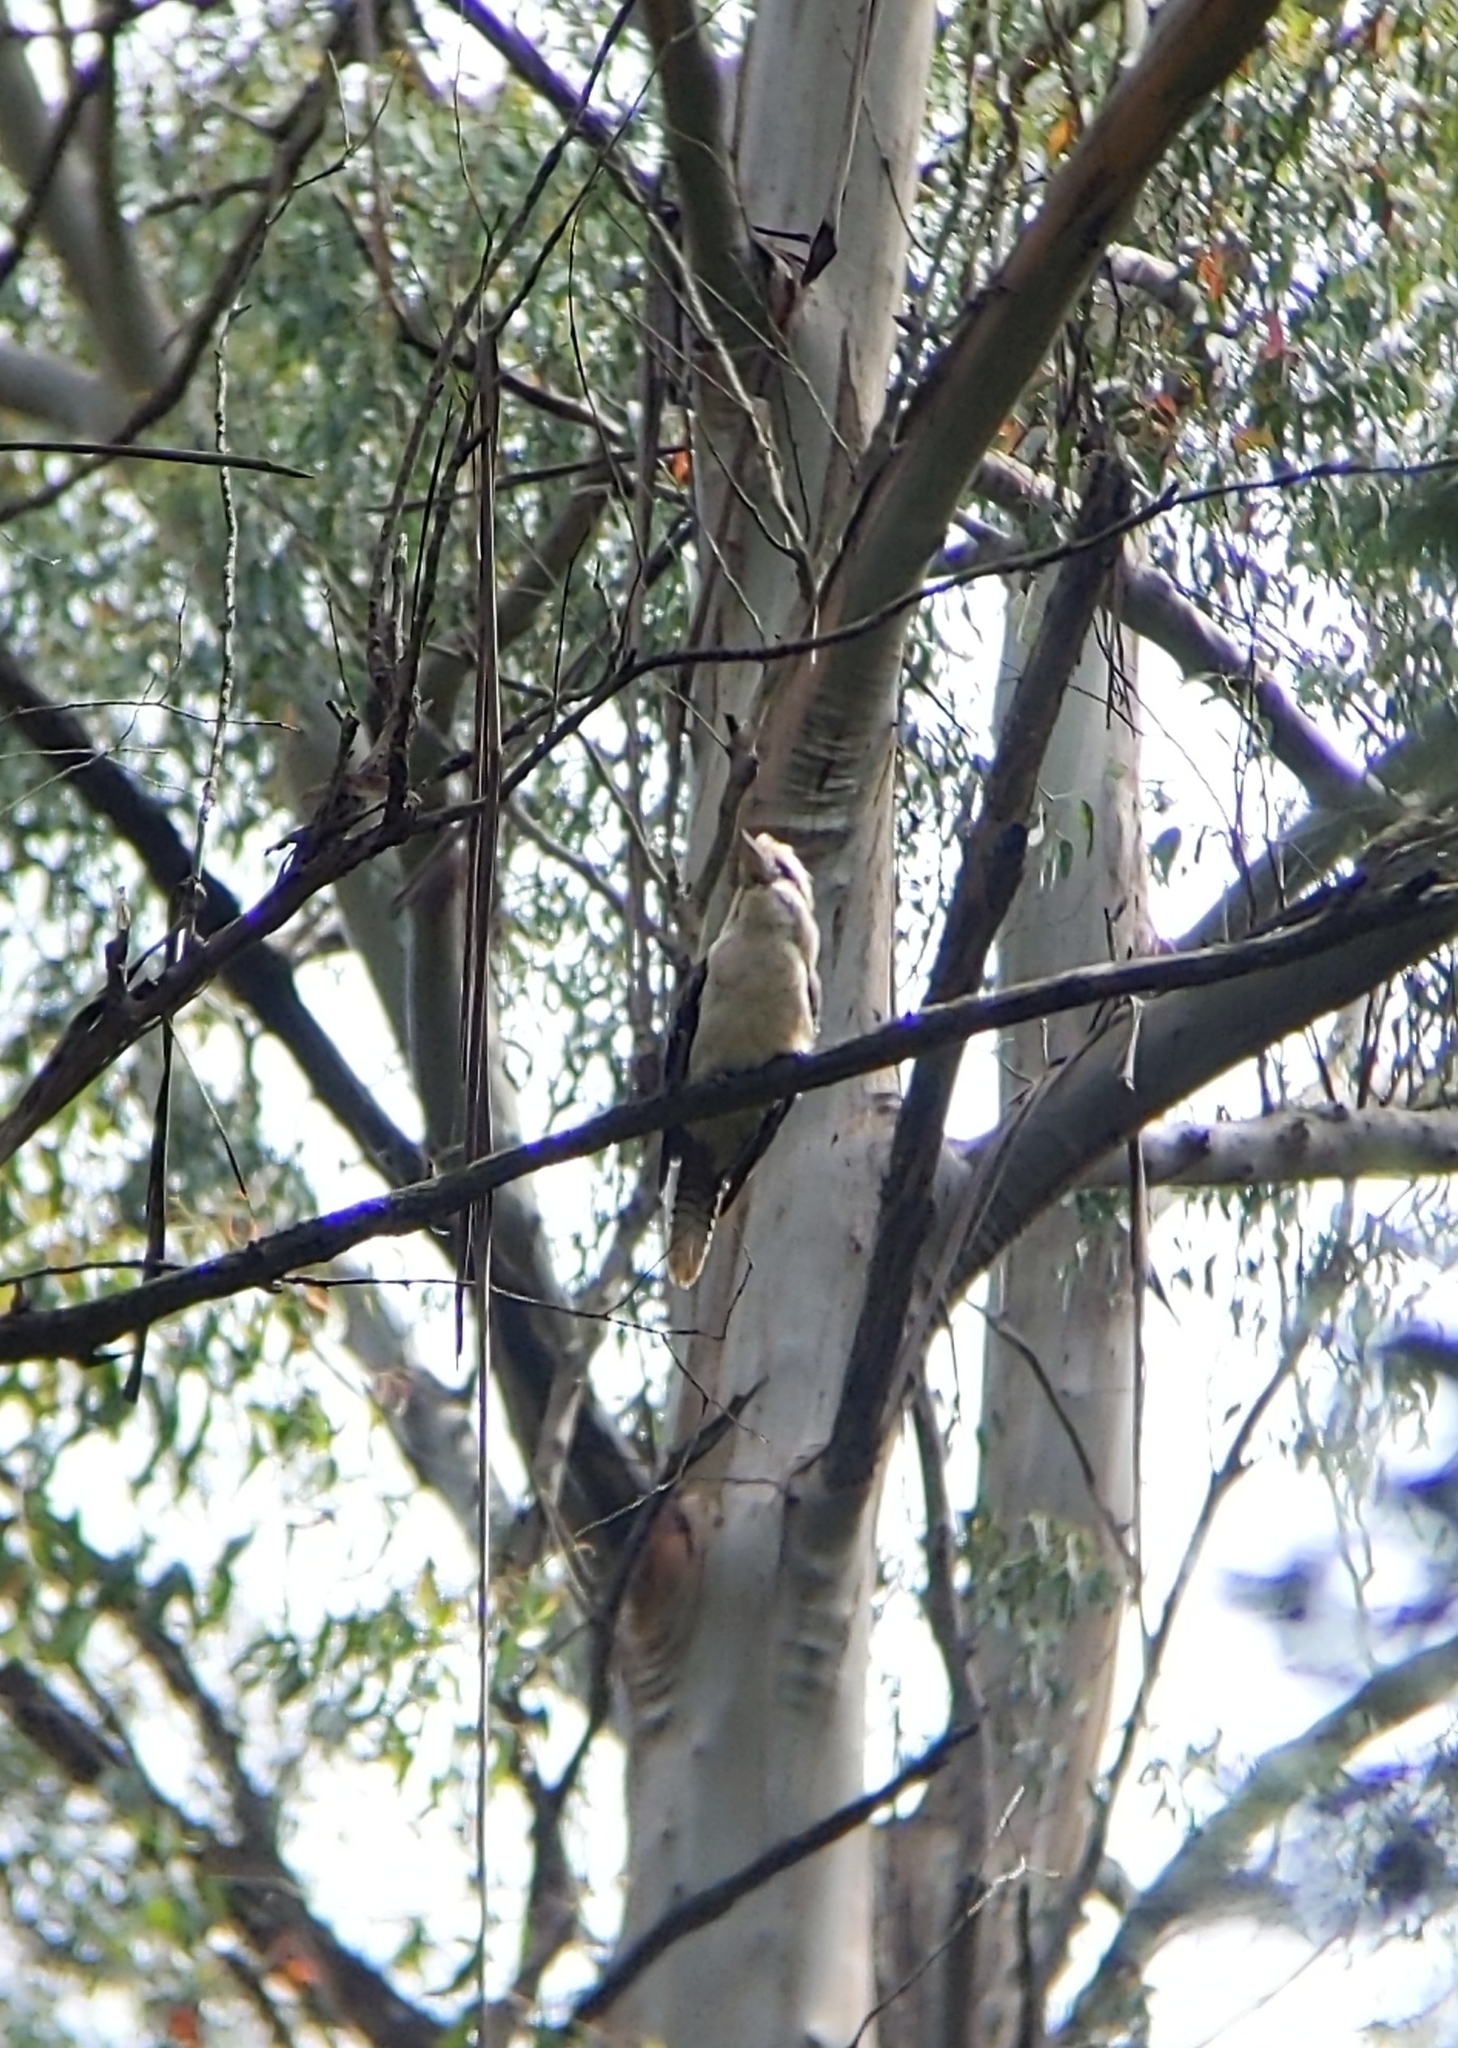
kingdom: Animalia
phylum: Chordata
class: Aves
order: Coraciiformes
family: Alcedinidae
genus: Dacelo
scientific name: Dacelo novaeguineae
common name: Laughing kookaburra
